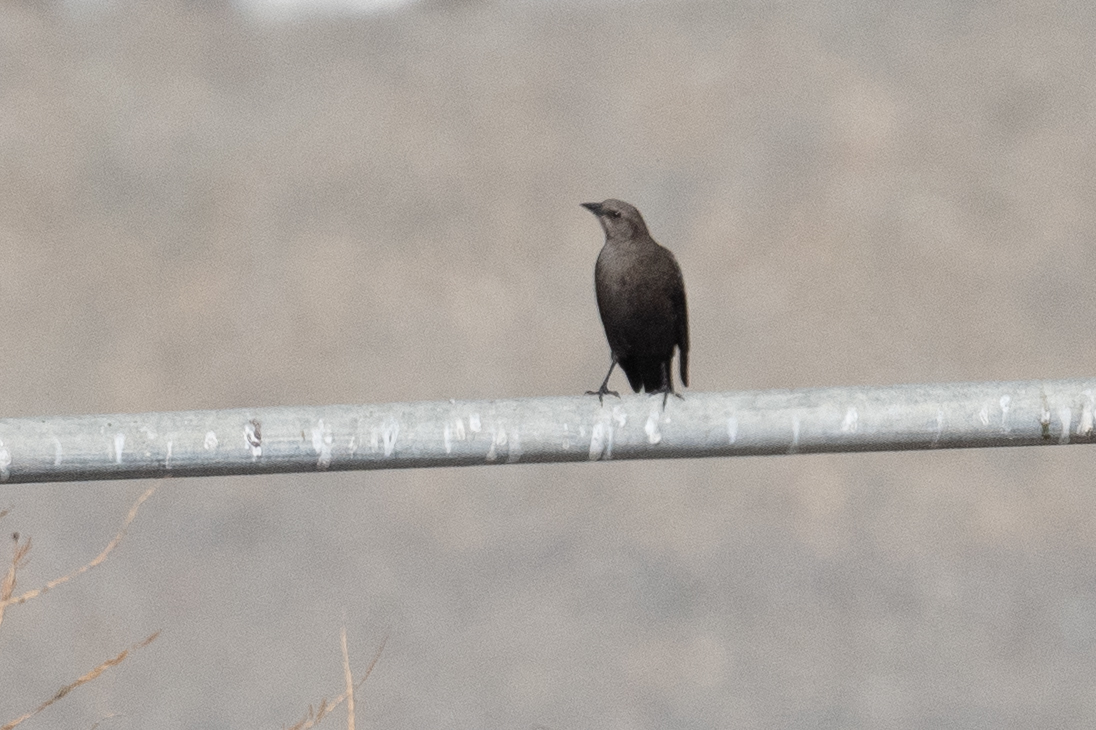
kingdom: Animalia
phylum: Chordata
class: Aves
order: Passeriformes
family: Icteridae
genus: Euphagus
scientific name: Euphagus cyanocephalus
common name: Brewer's blackbird
